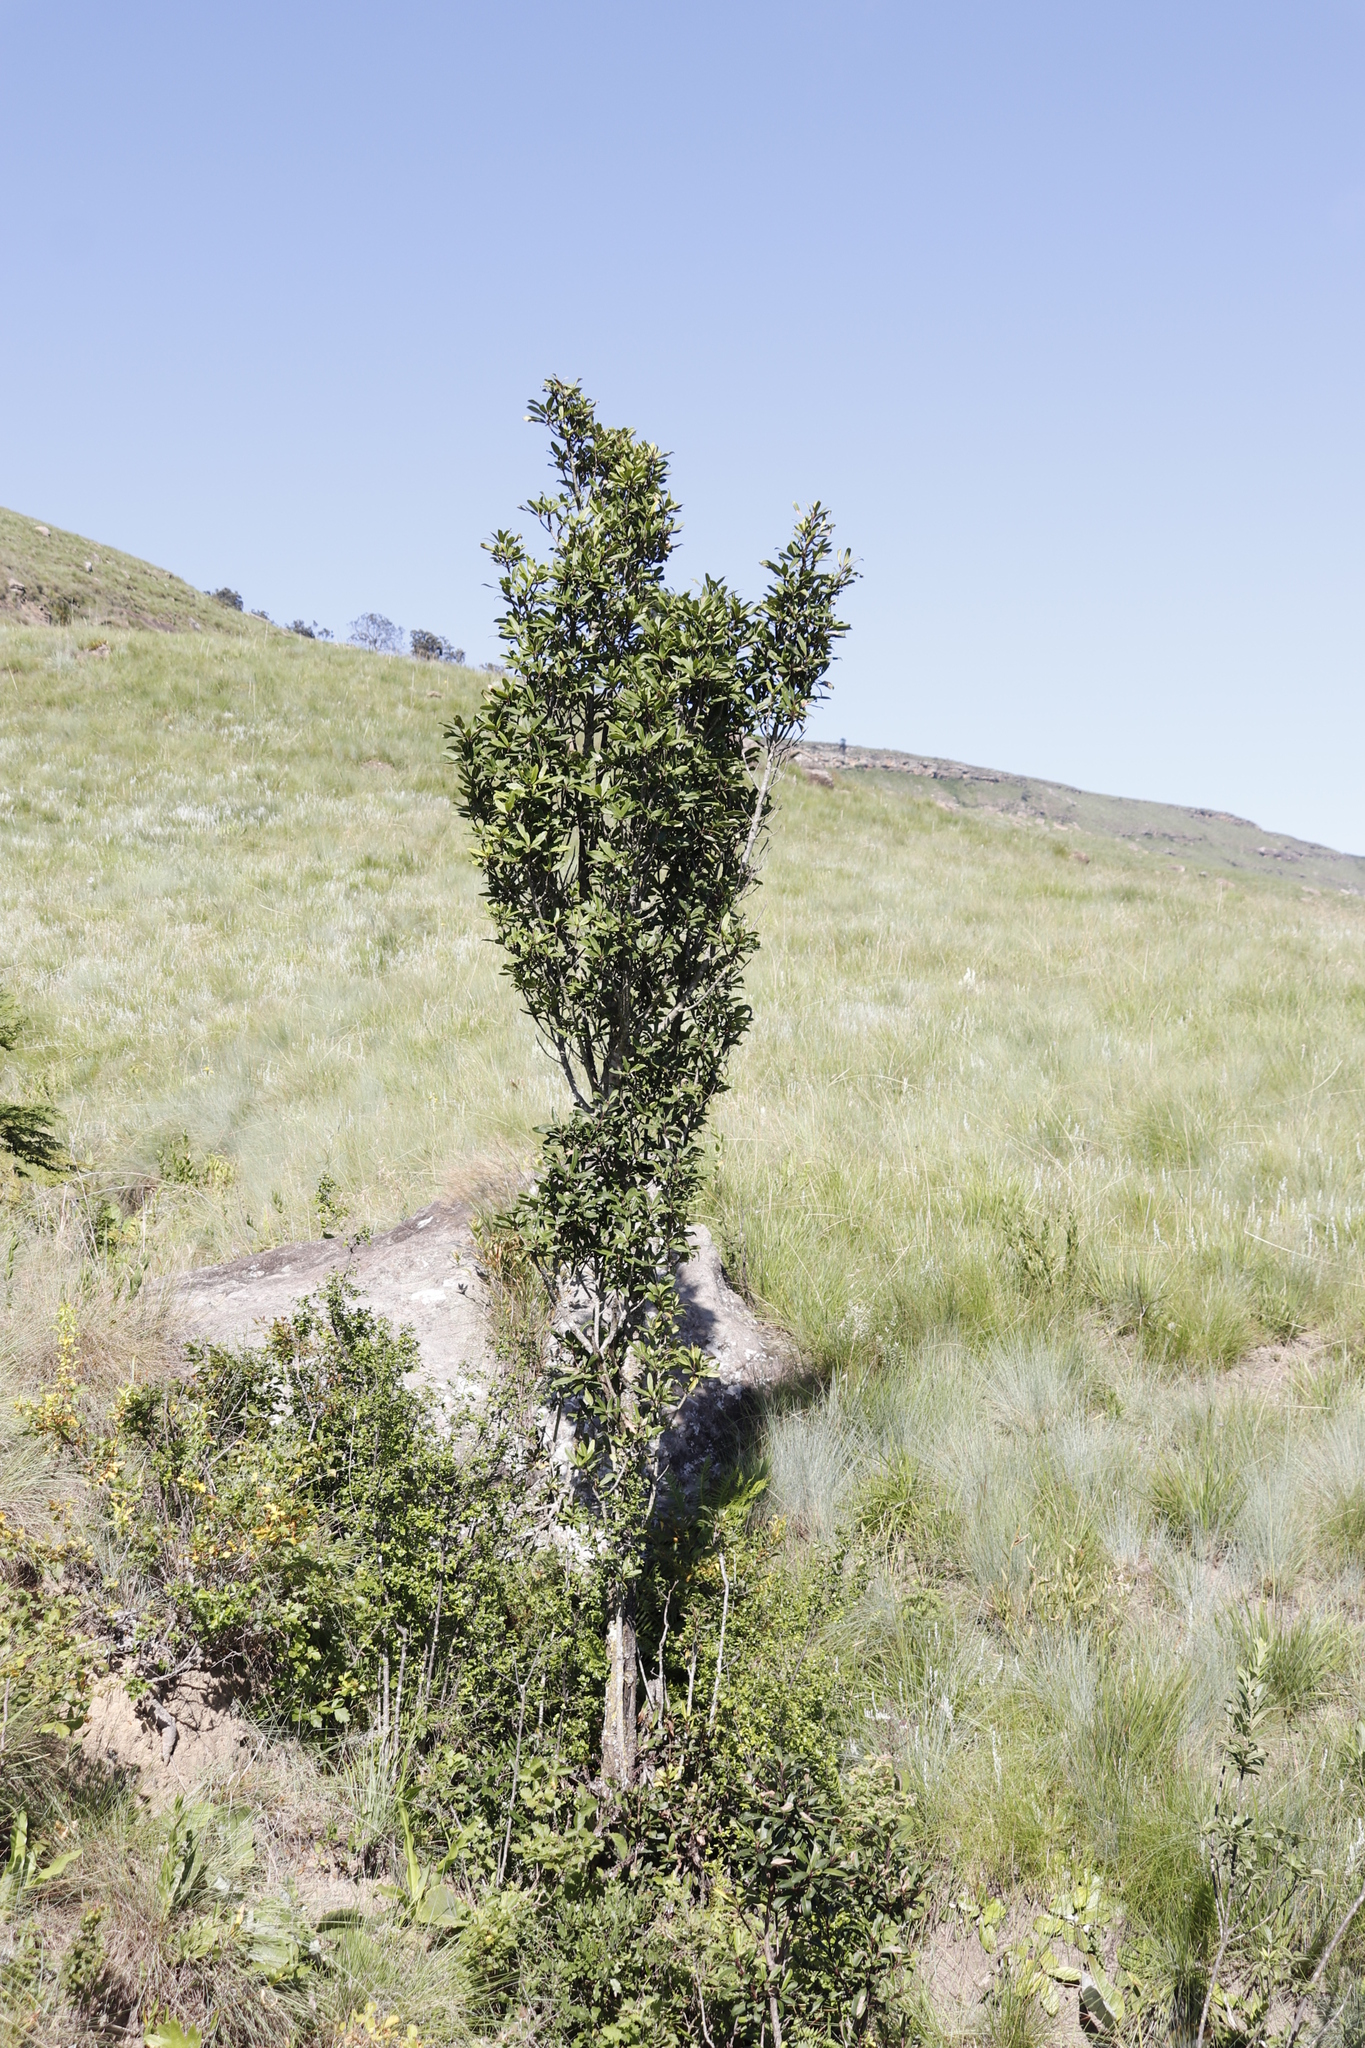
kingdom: Plantae
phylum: Tracheophyta
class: Magnoliopsida
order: Ericales
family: Primulaceae
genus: Myrsine
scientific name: Myrsine melanophloeos
